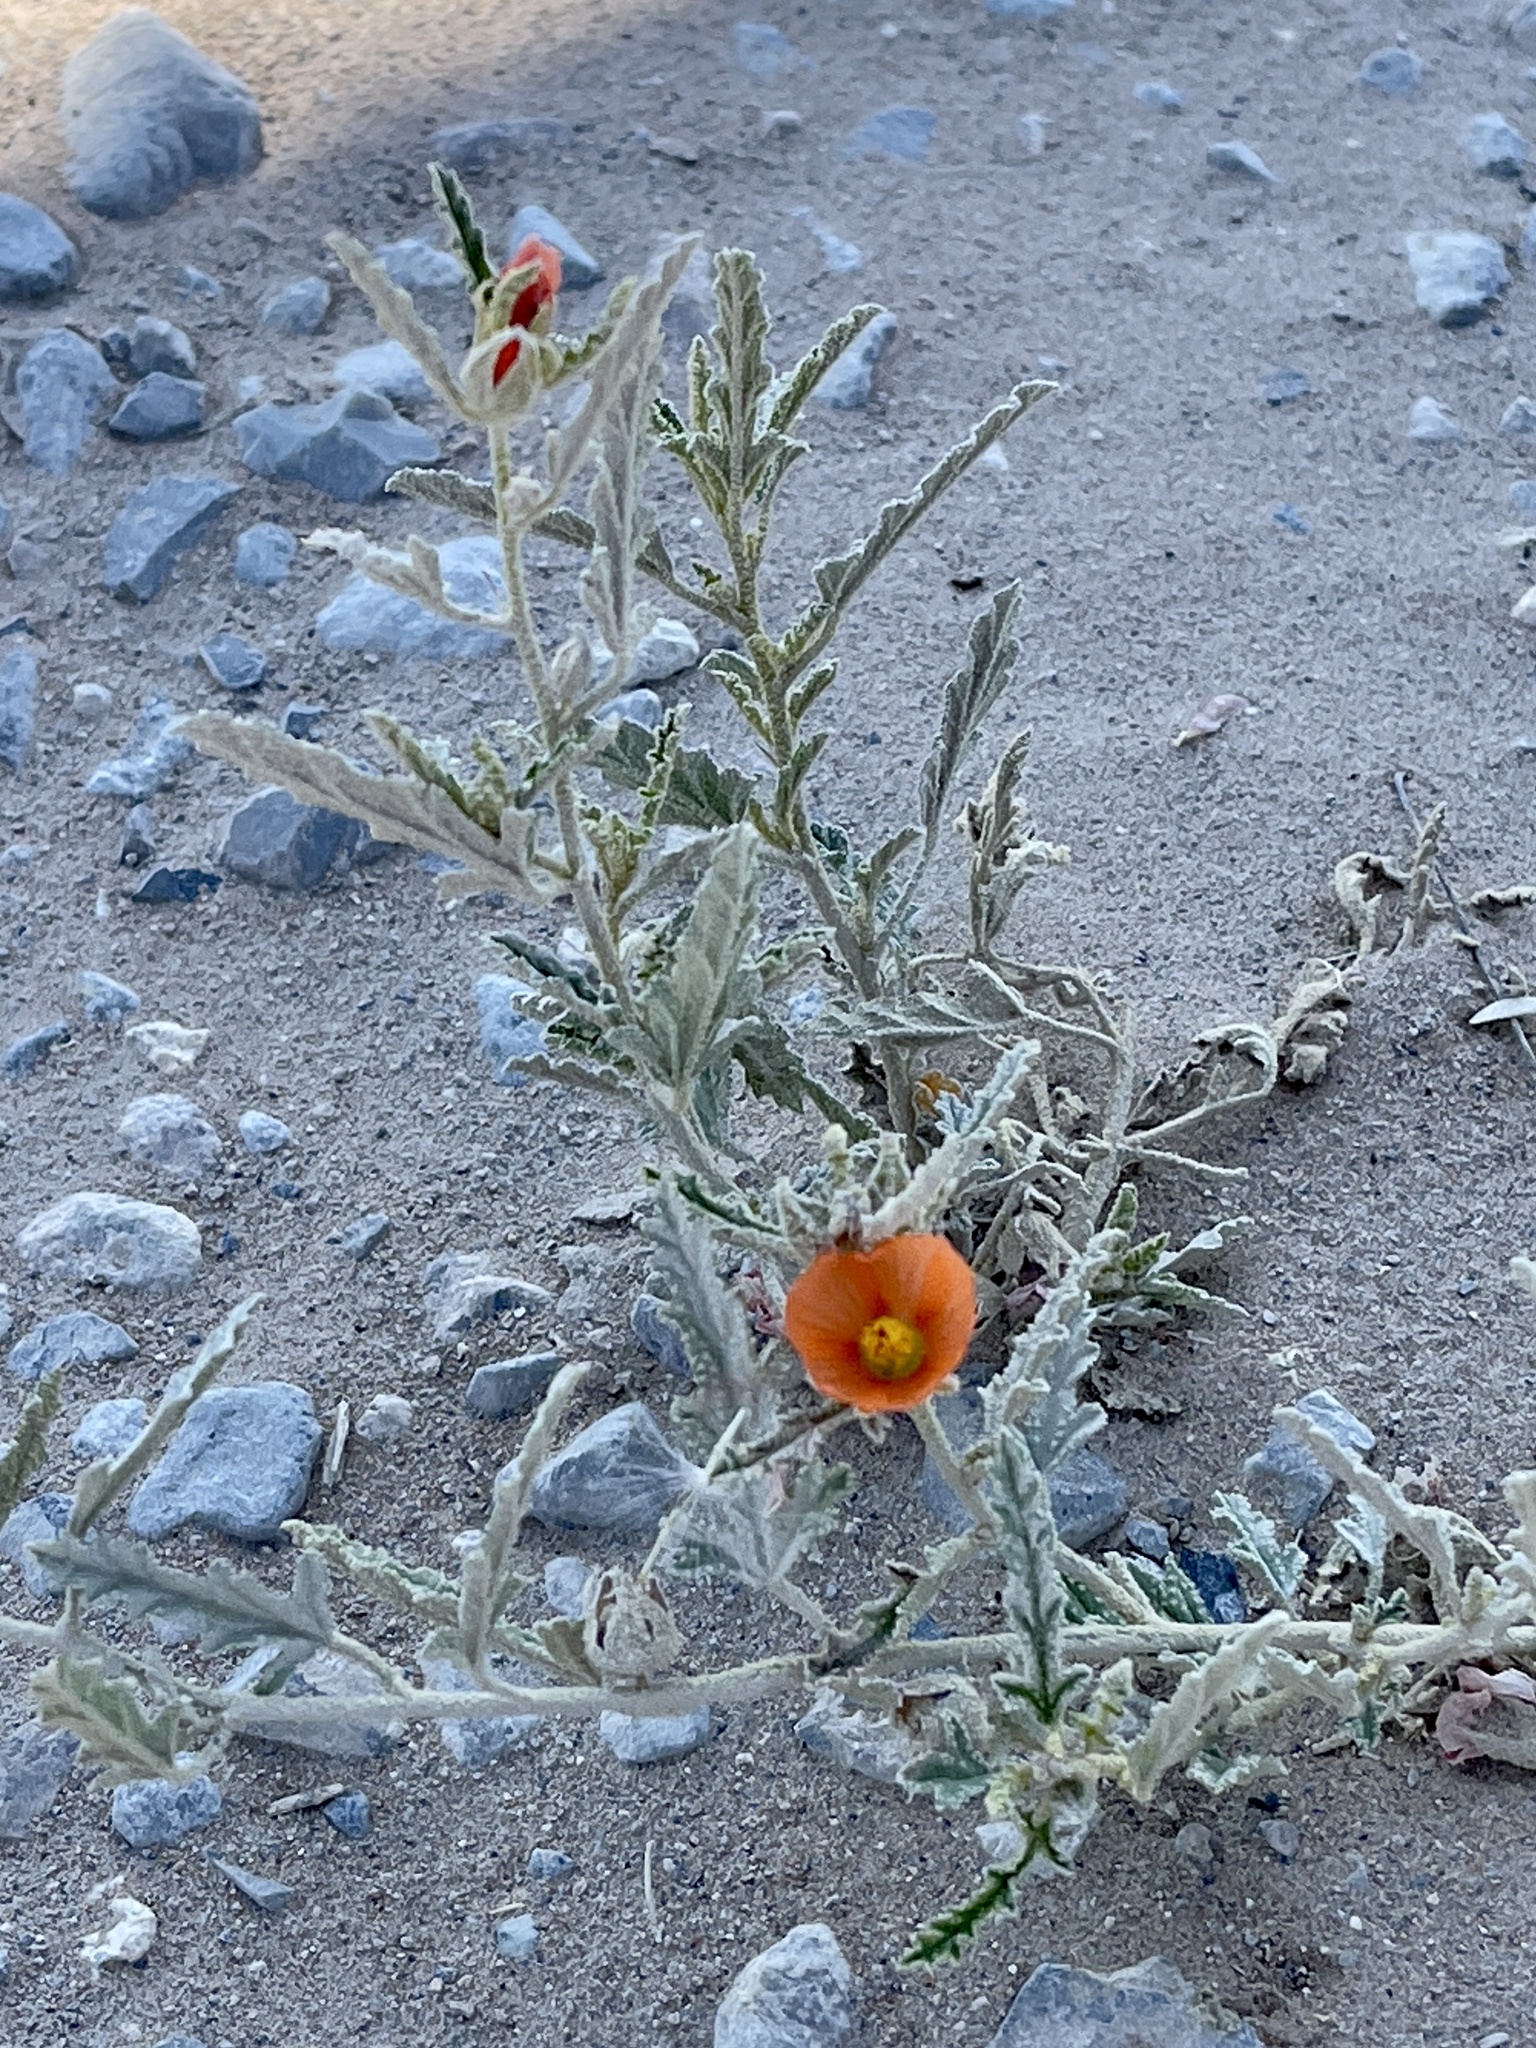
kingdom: Plantae
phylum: Tracheophyta
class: Magnoliopsida
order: Malvales
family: Malvaceae
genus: Sphaeralcea
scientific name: Sphaeralcea hastulata
